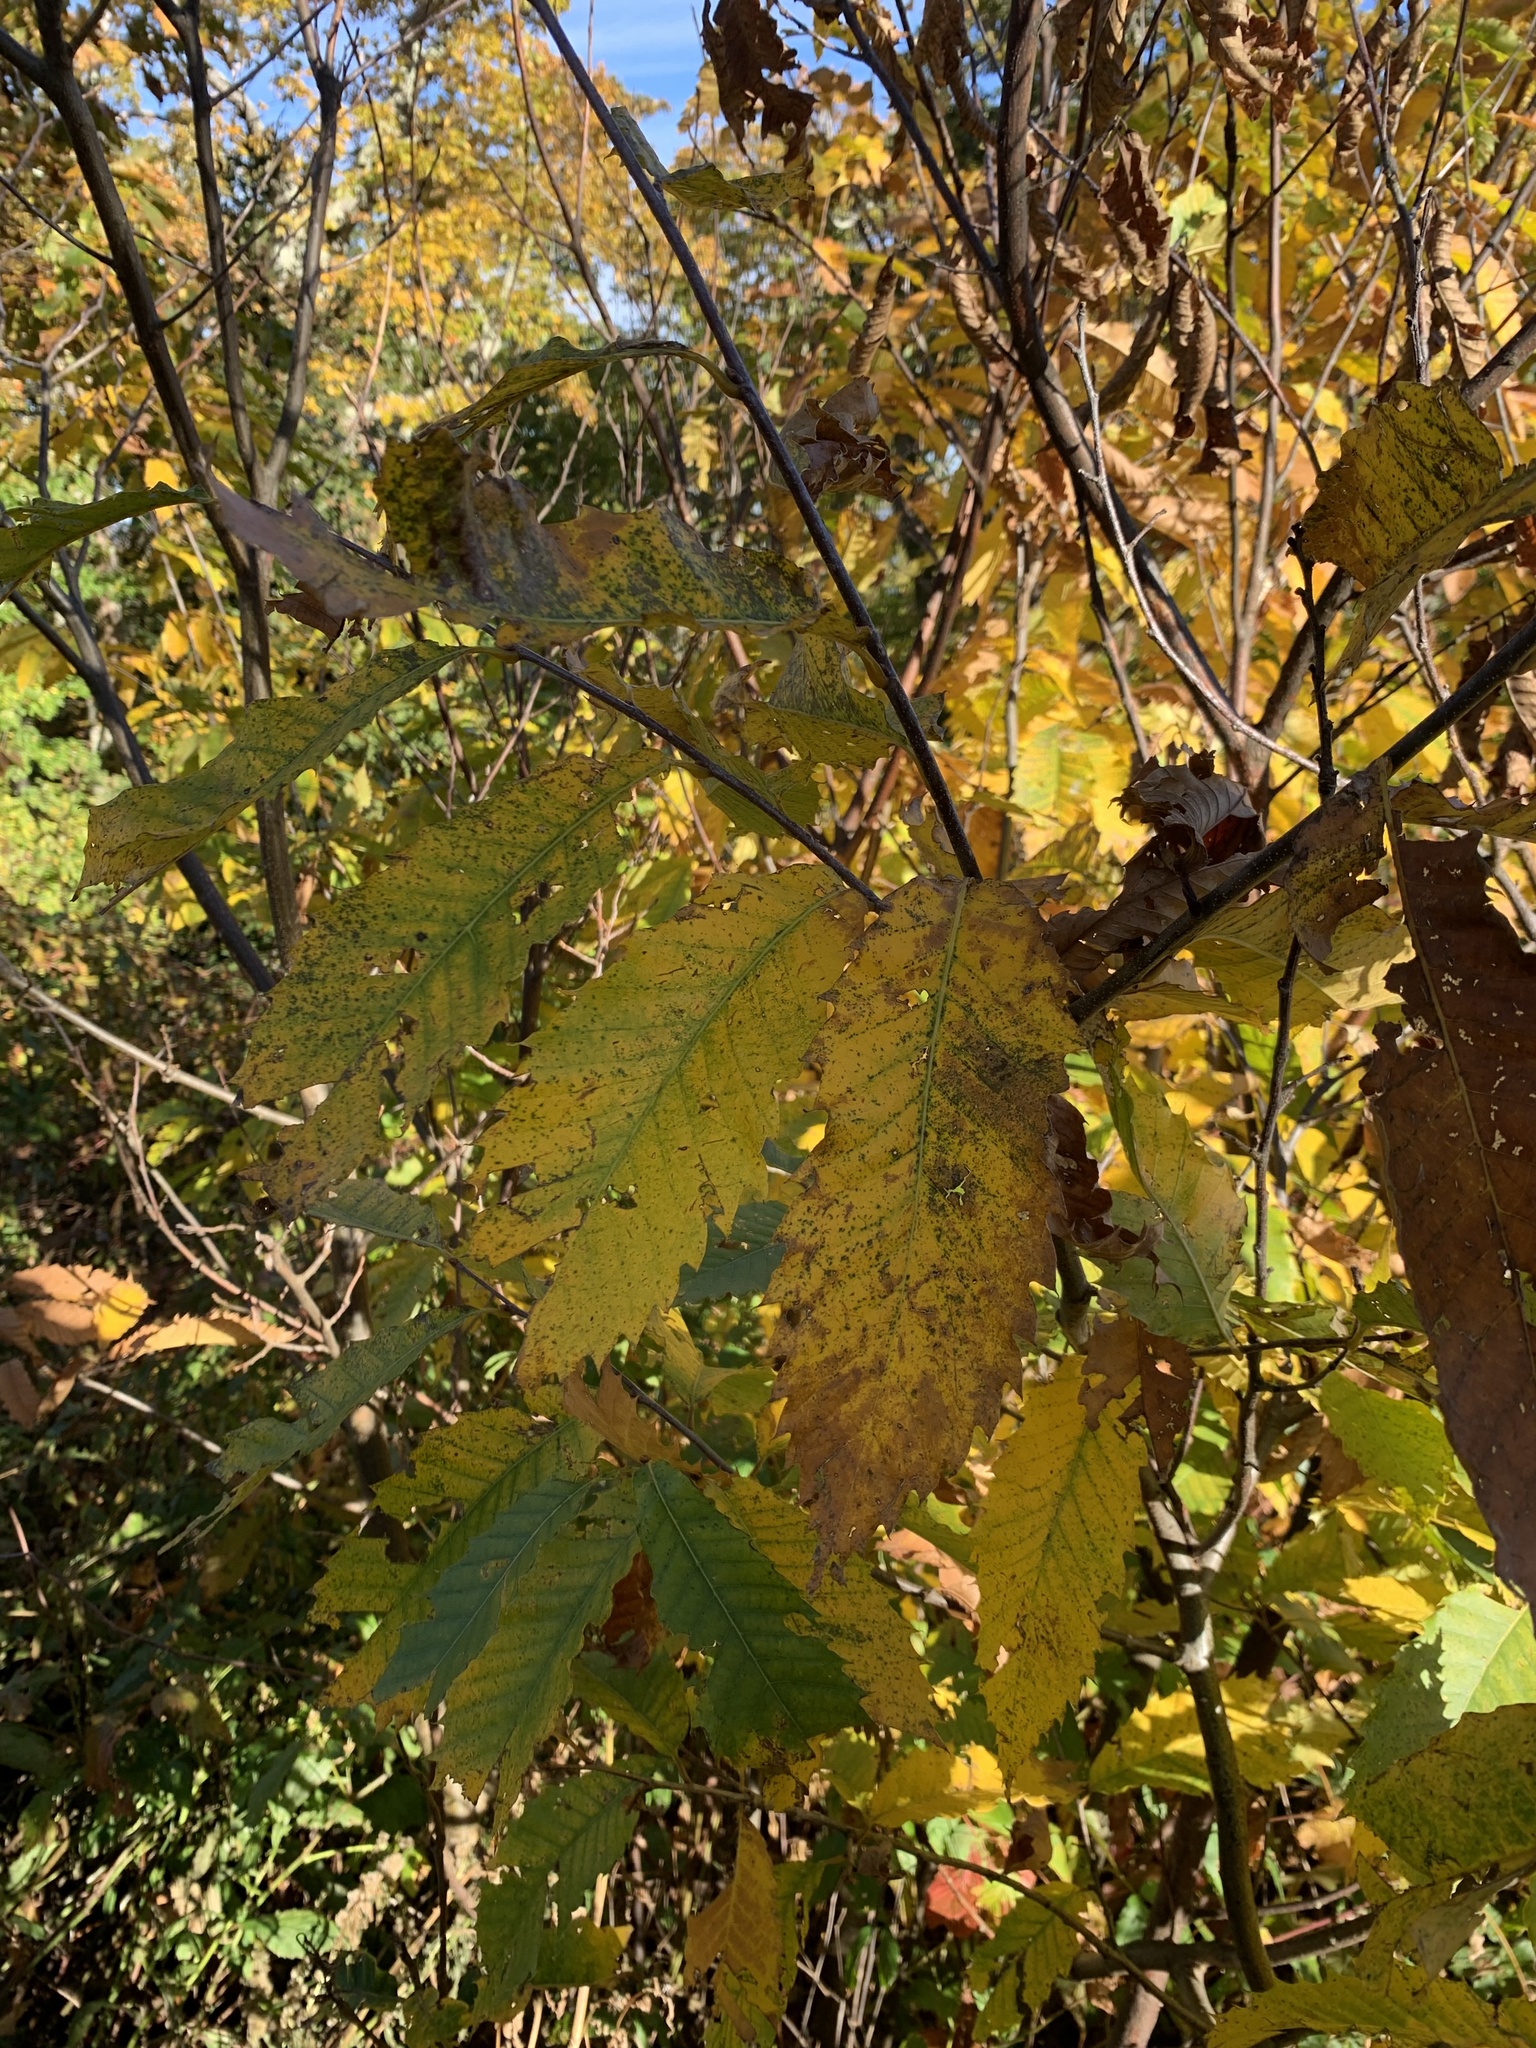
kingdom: Plantae
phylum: Tracheophyta
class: Magnoliopsida
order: Fagales
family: Fagaceae
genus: Castanea
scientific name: Castanea dentata
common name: American chestnut
